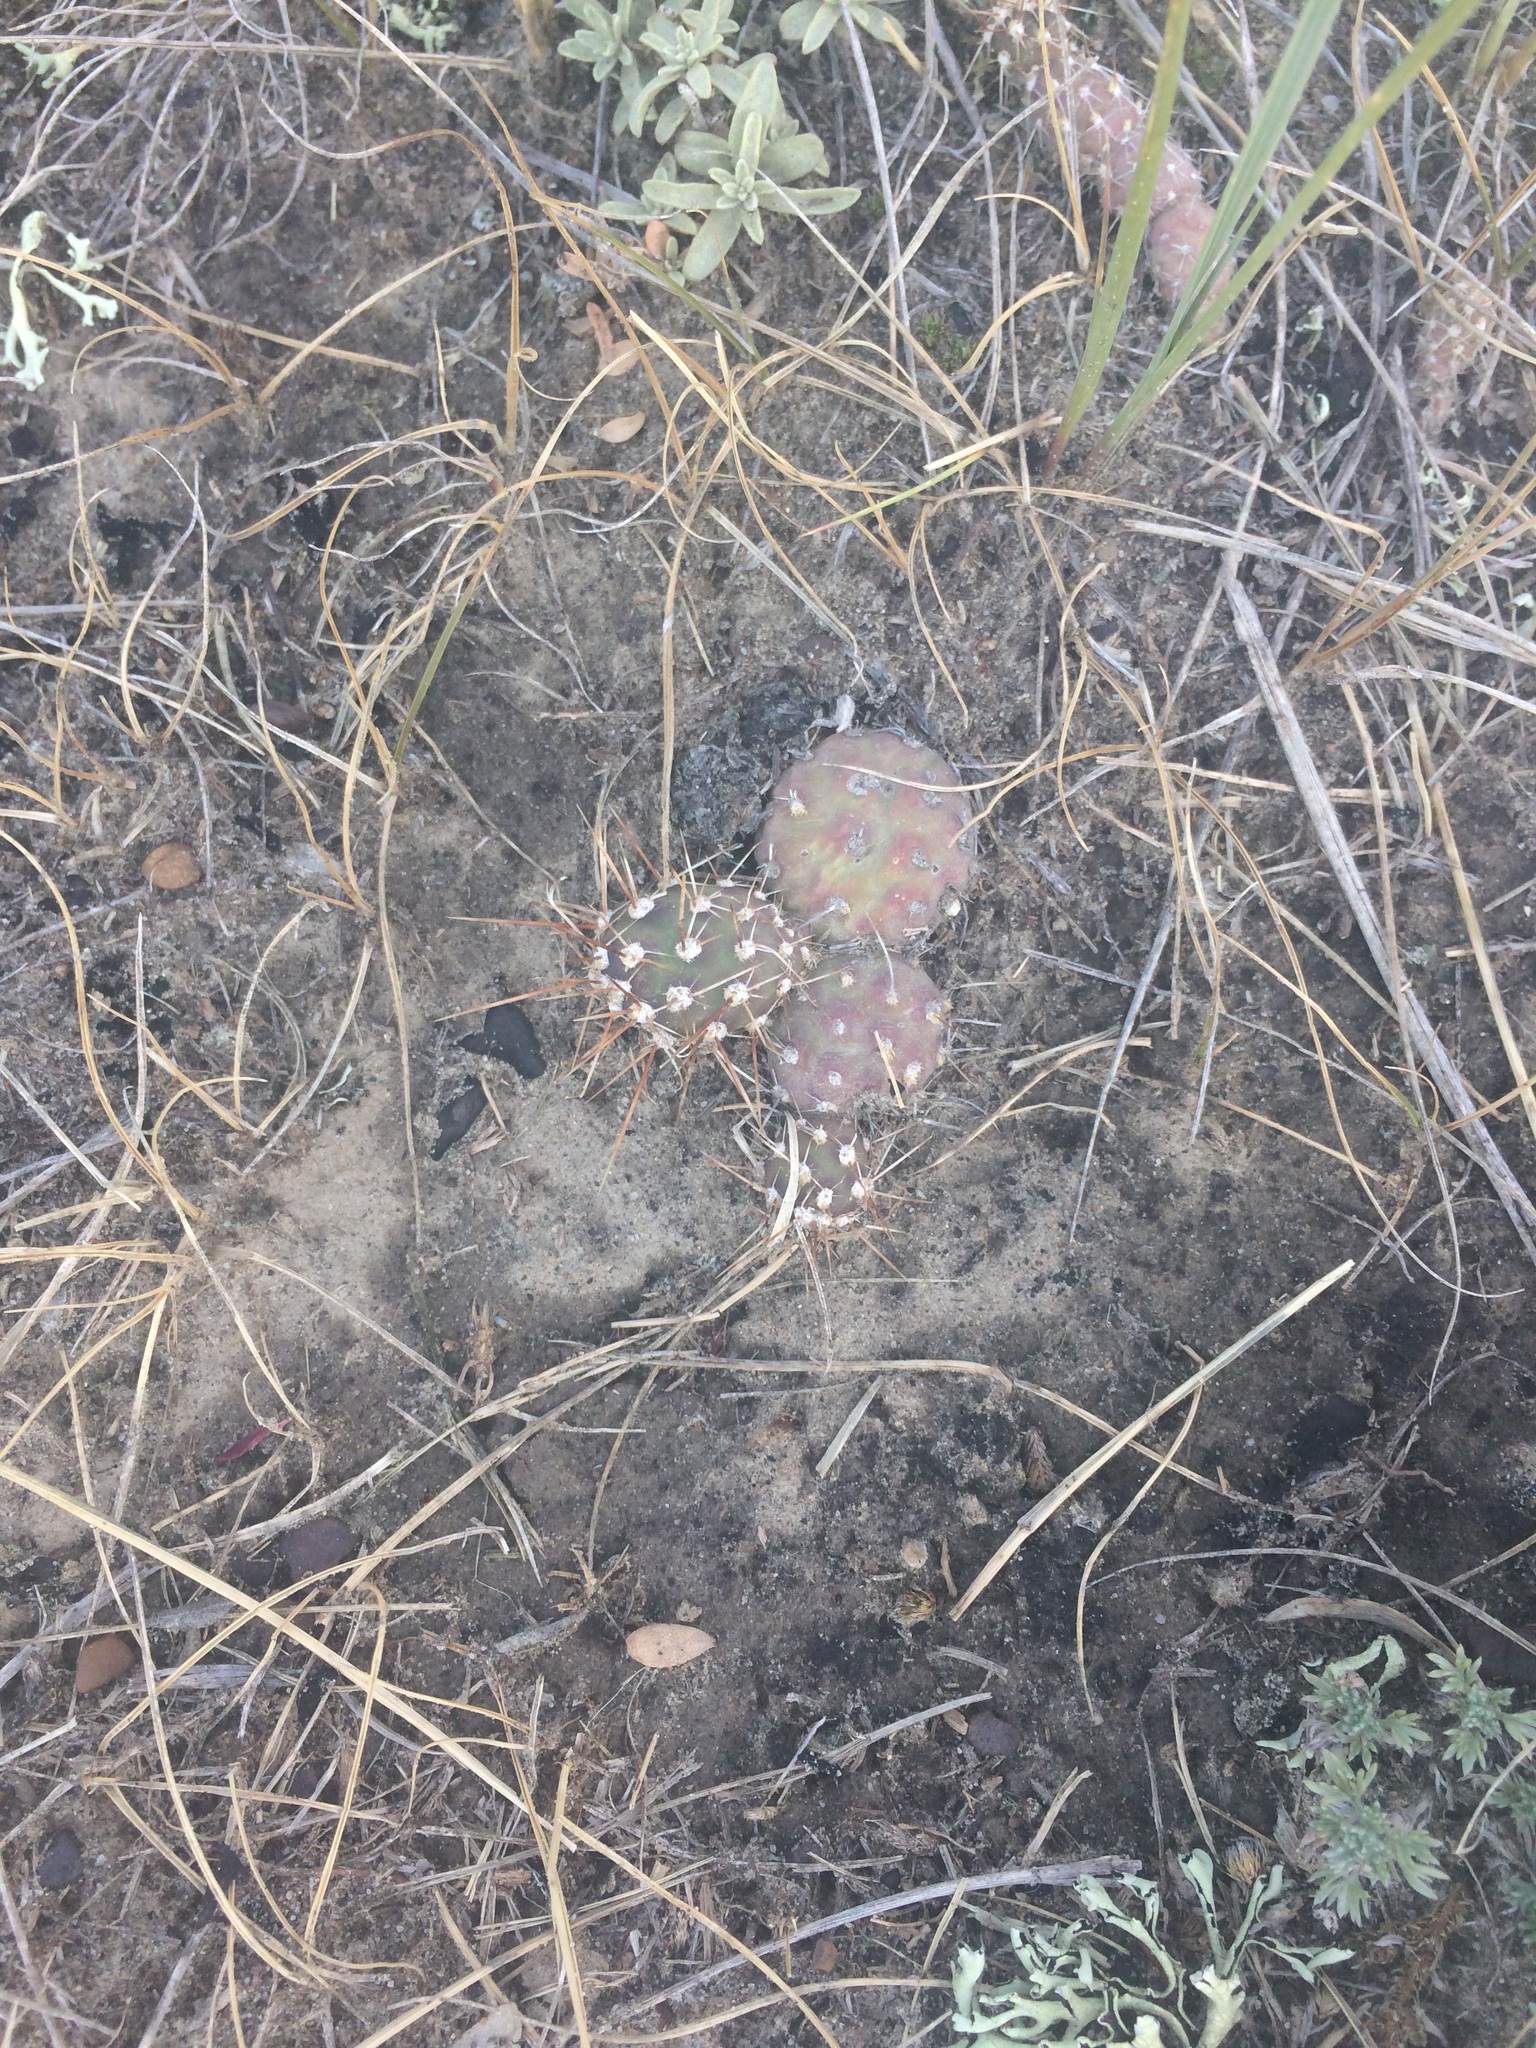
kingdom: Plantae
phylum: Tracheophyta
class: Magnoliopsida
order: Caryophyllales
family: Cactaceae
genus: Opuntia
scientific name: Opuntia fragilis
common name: Brittle cactus
